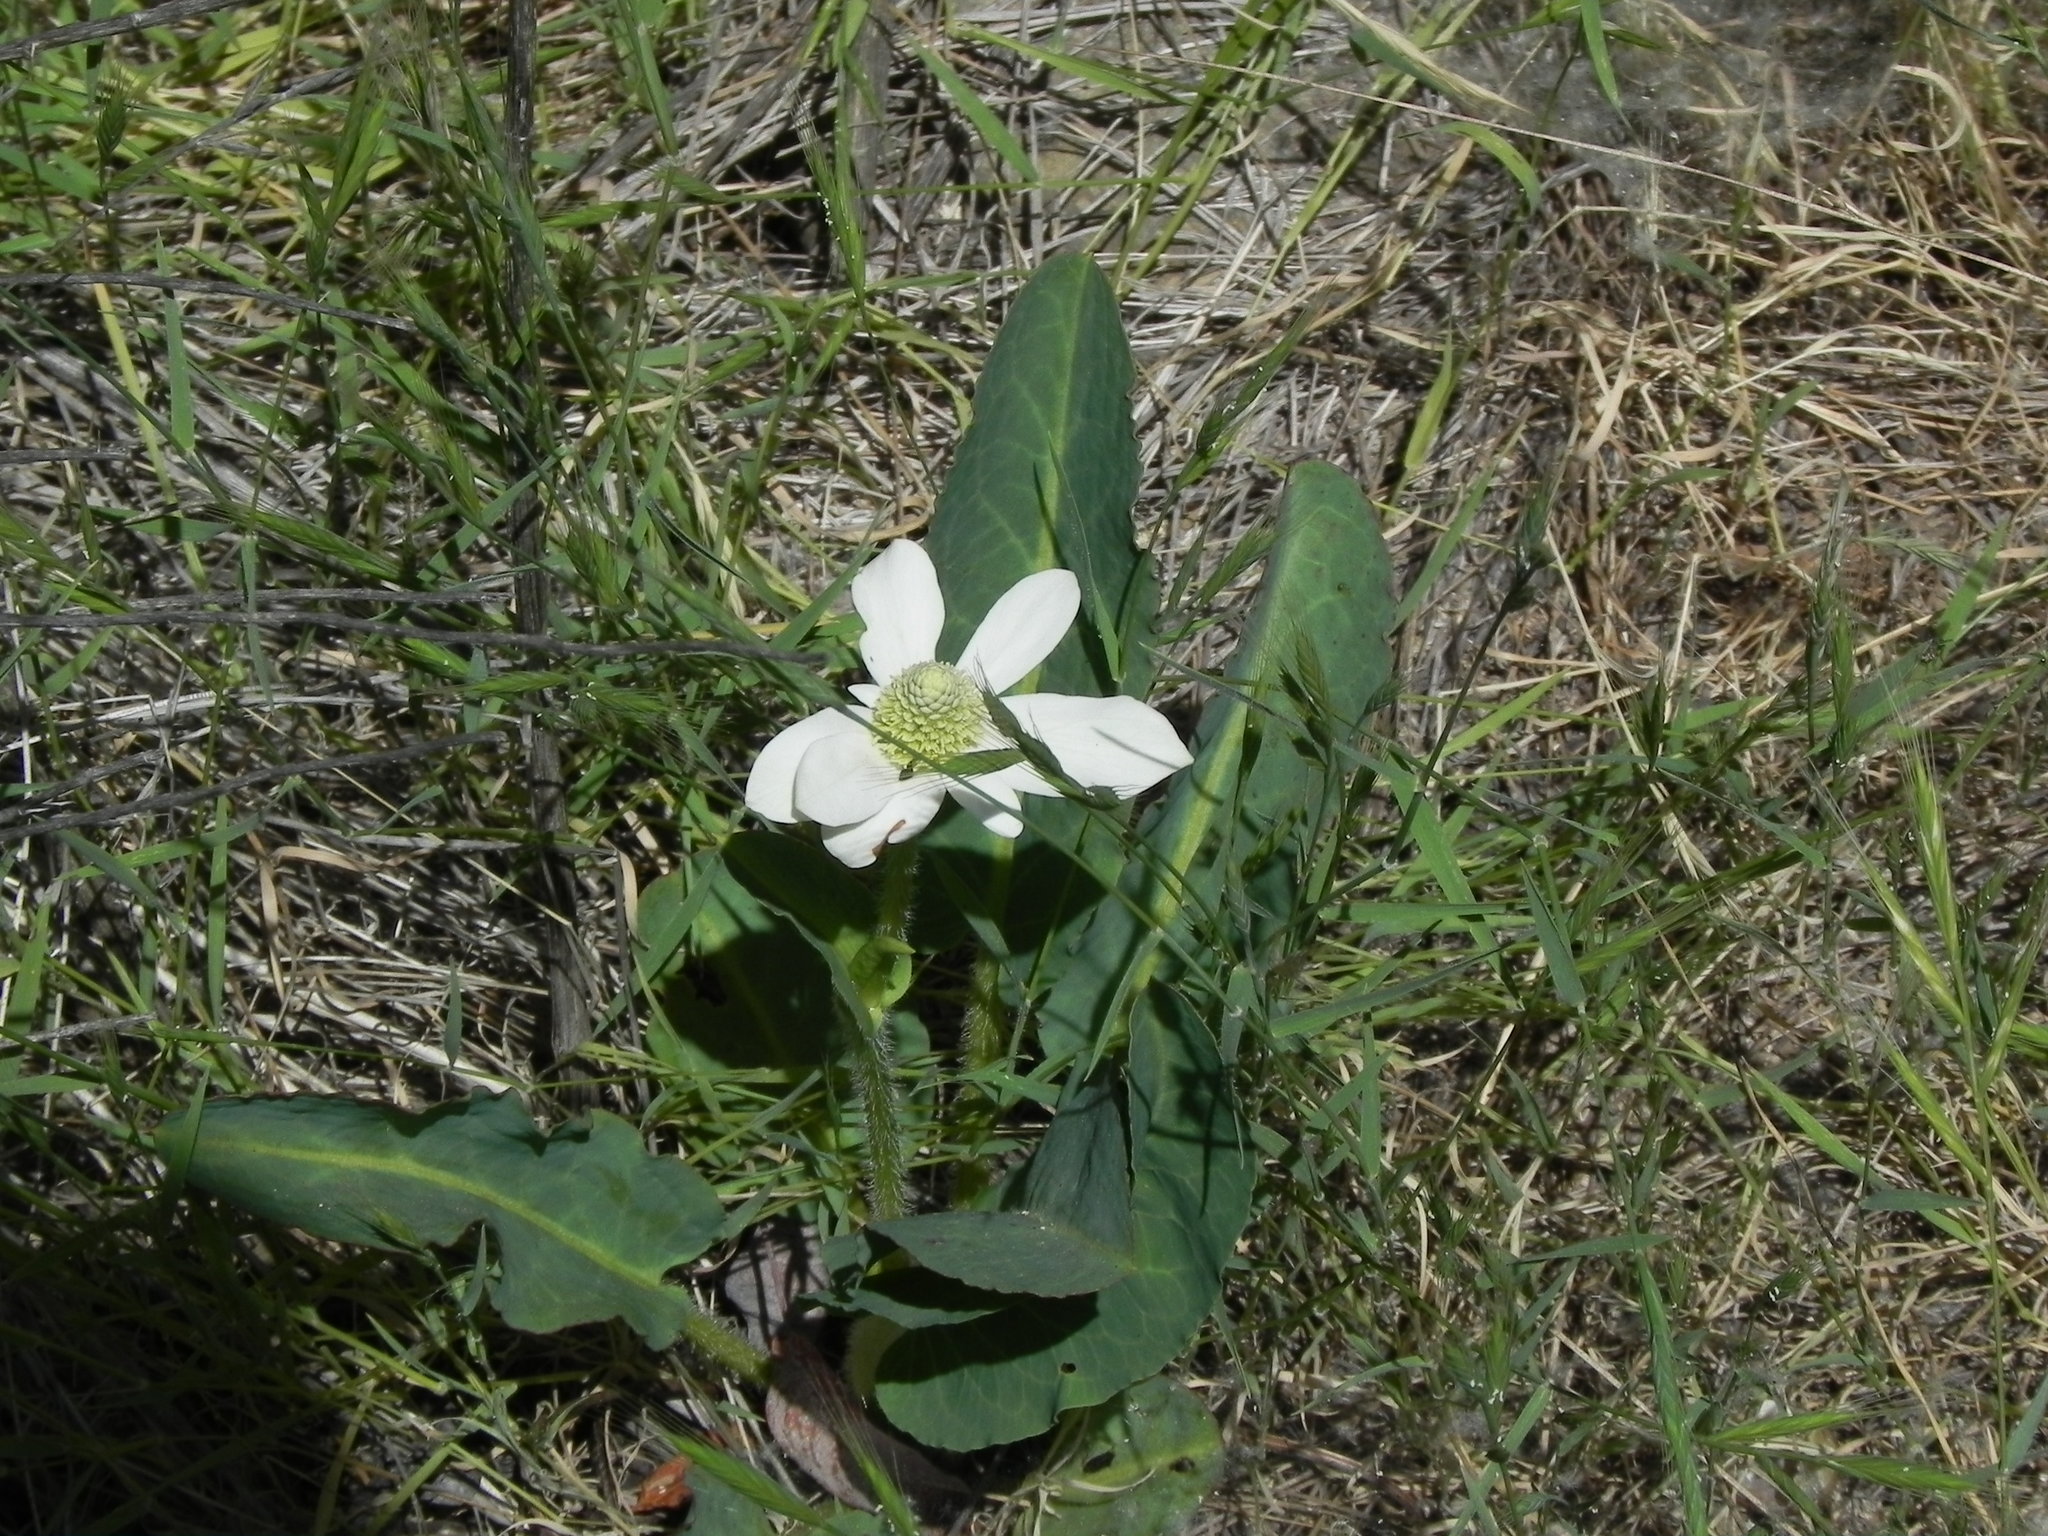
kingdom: Plantae
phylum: Tracheophyta
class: Magnoliopsida
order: Piperales
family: Saururaceae
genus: Anemopsis
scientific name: Anemopsis californica
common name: Apache-beads
